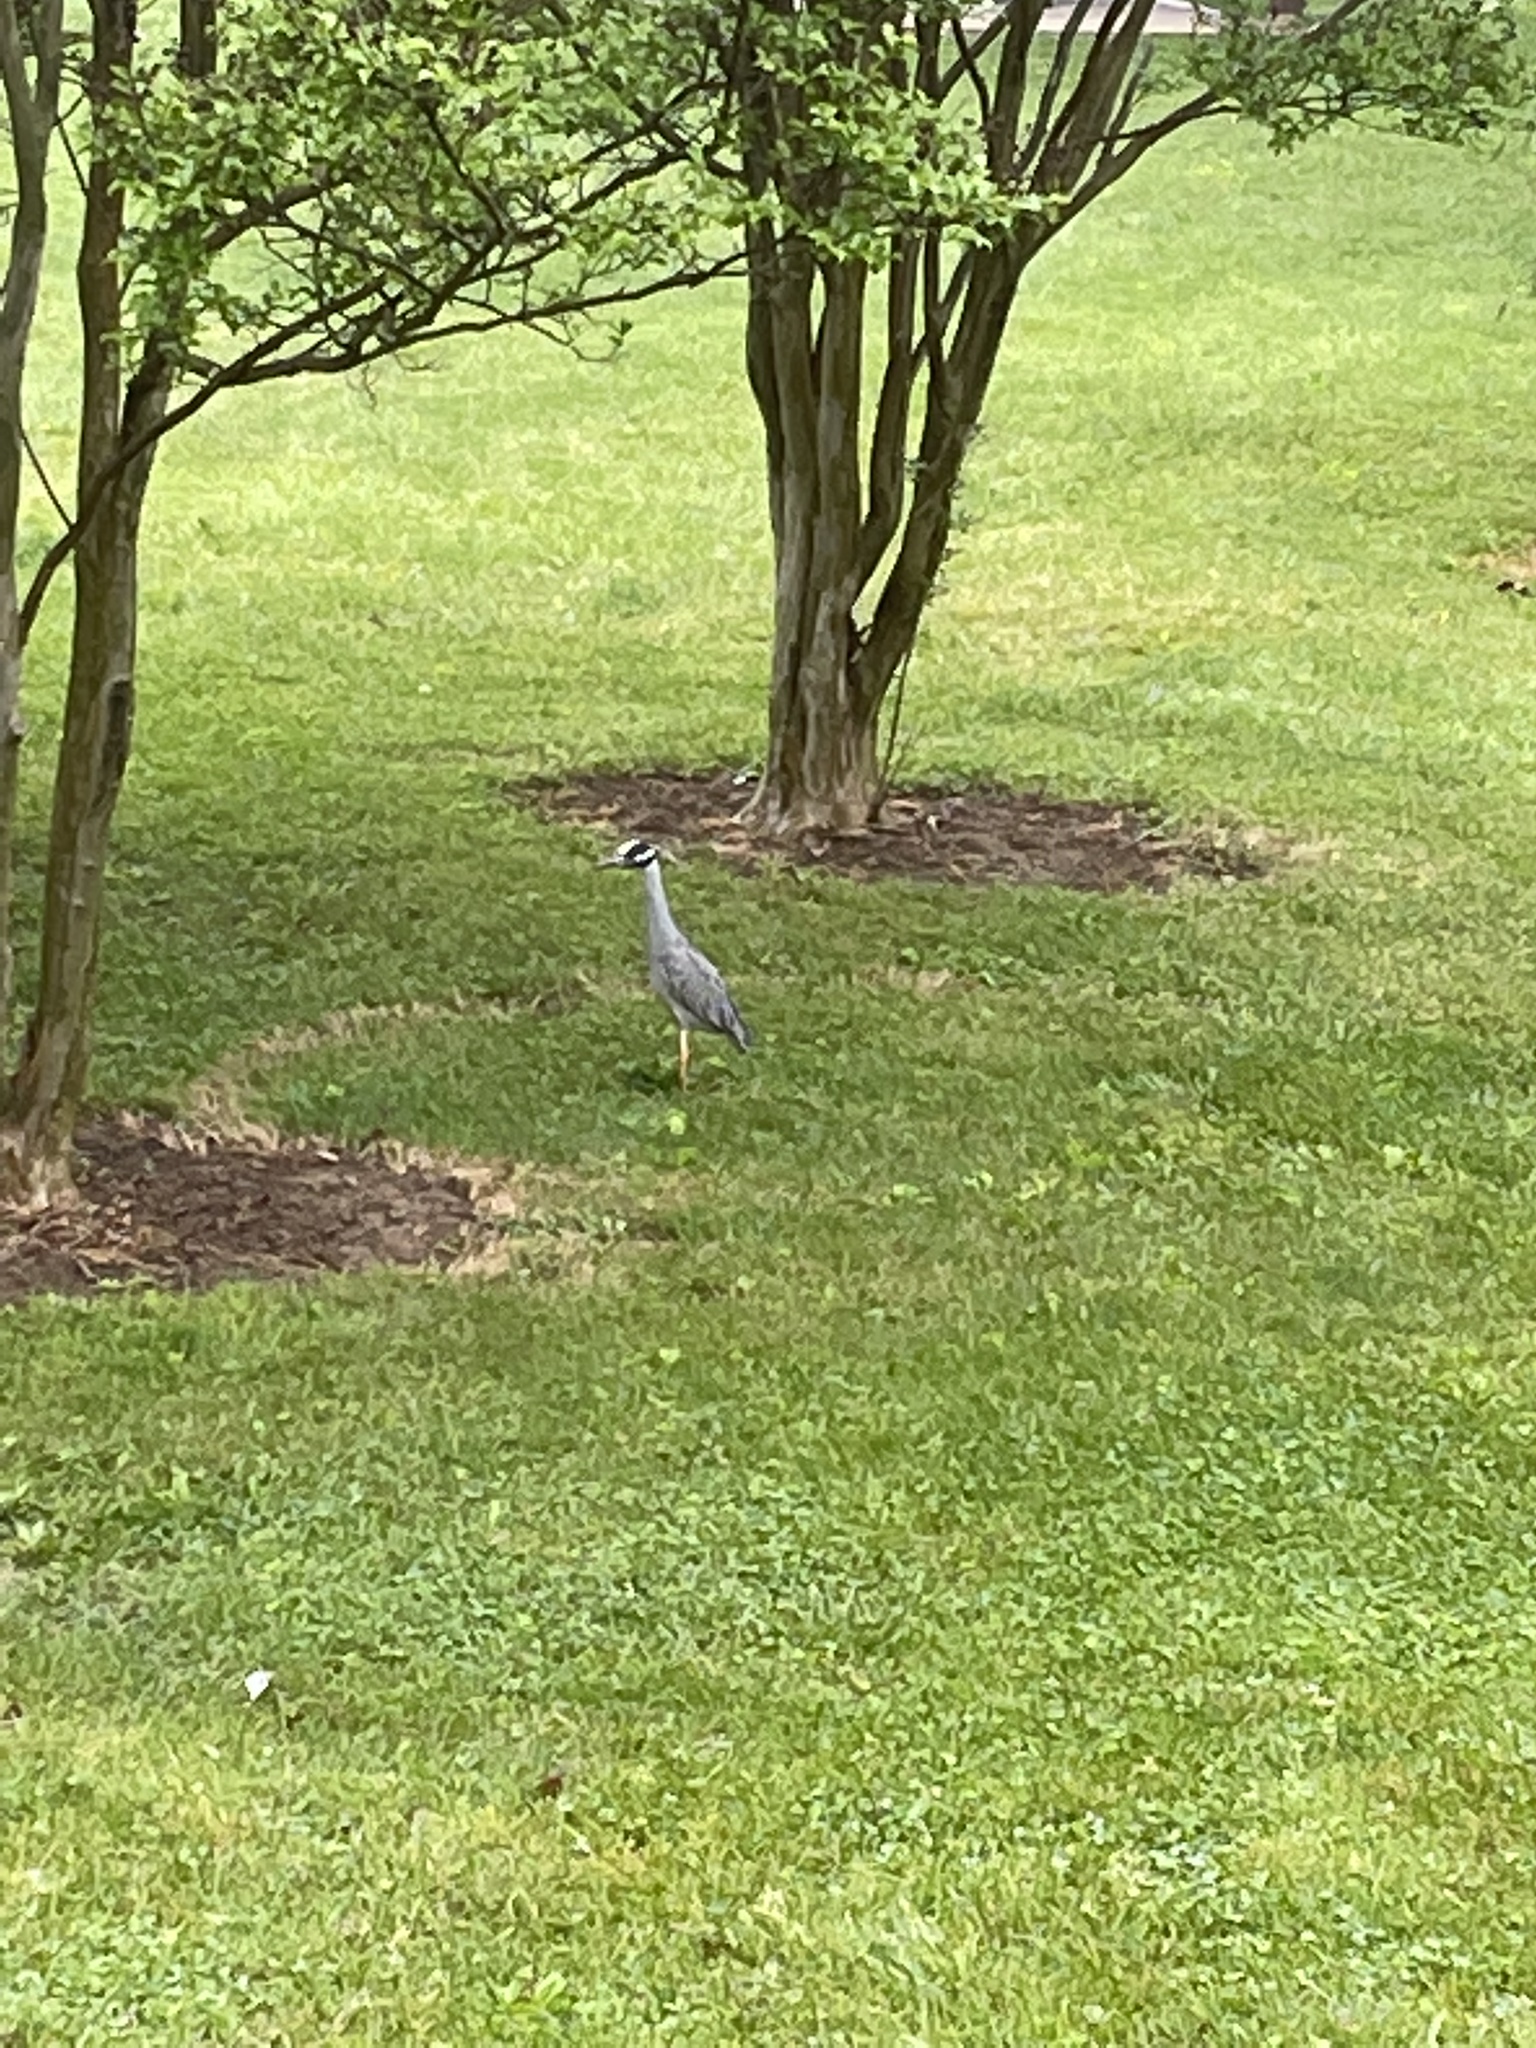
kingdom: Animalia
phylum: Chordata
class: Aves
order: Pelecaniformes
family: Ardeidae
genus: Nyctanassa
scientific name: Nyctanassa violacea
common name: Yellow-crowned night heron
